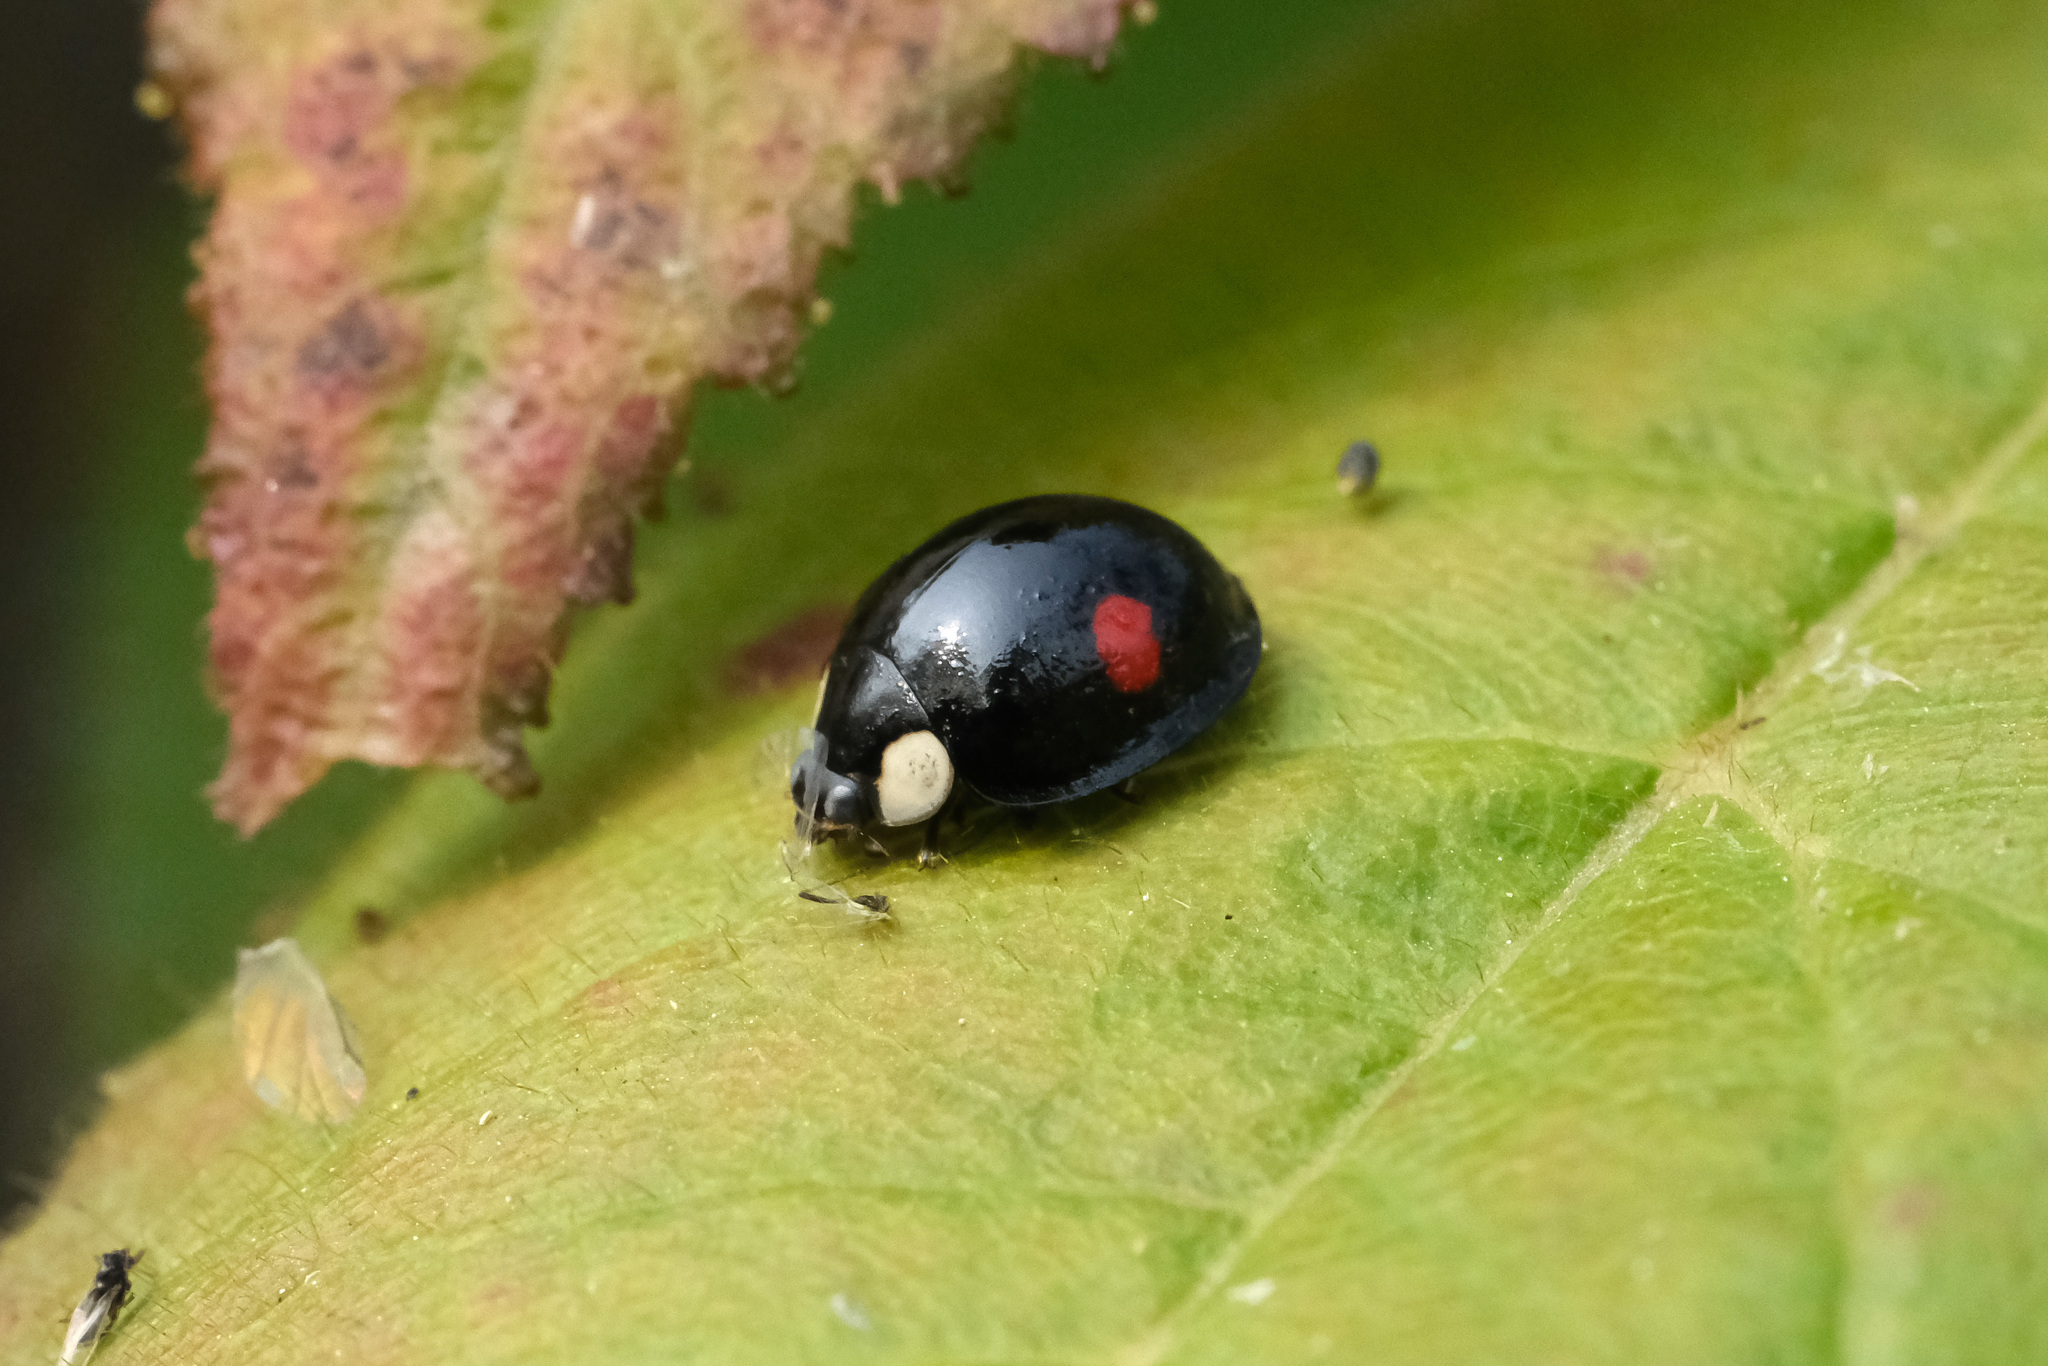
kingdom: Animalia
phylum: Arthropoda
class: Insecta
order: Coleoptera
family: Coccinellidae
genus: Coelophora
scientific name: Coelophora saucia
